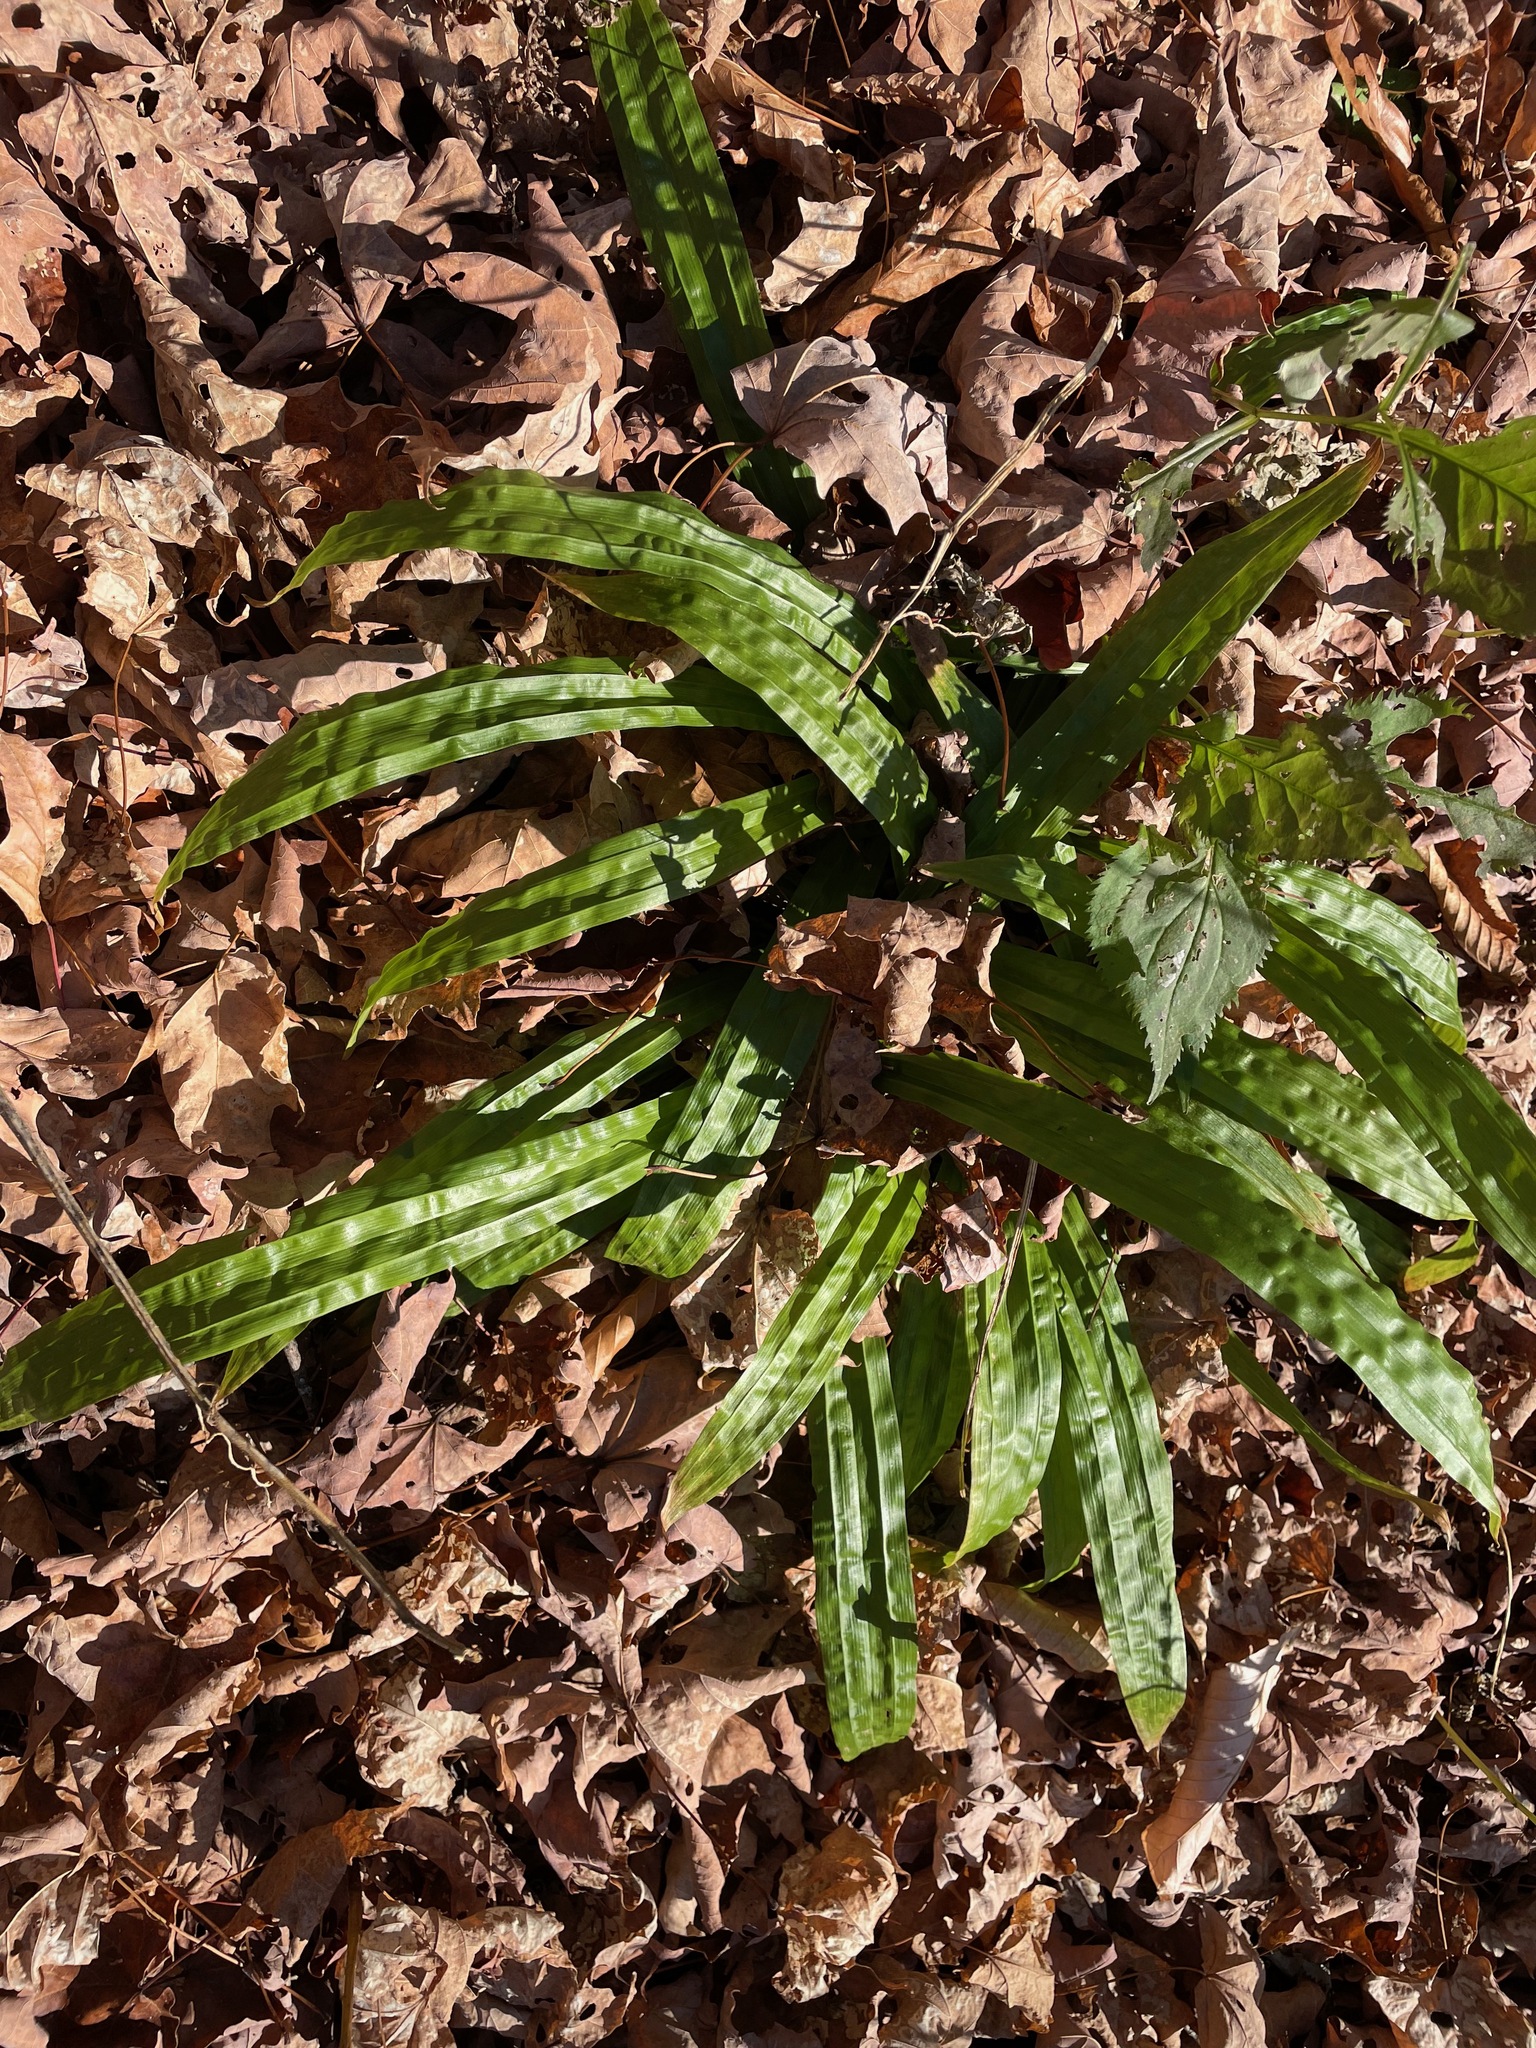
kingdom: Plantae
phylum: Tracheophyta
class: Liliopsida
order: Poales
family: Cyperaceae
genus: Carex
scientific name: Carex plantaginea
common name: Plantain-leaved sedge
